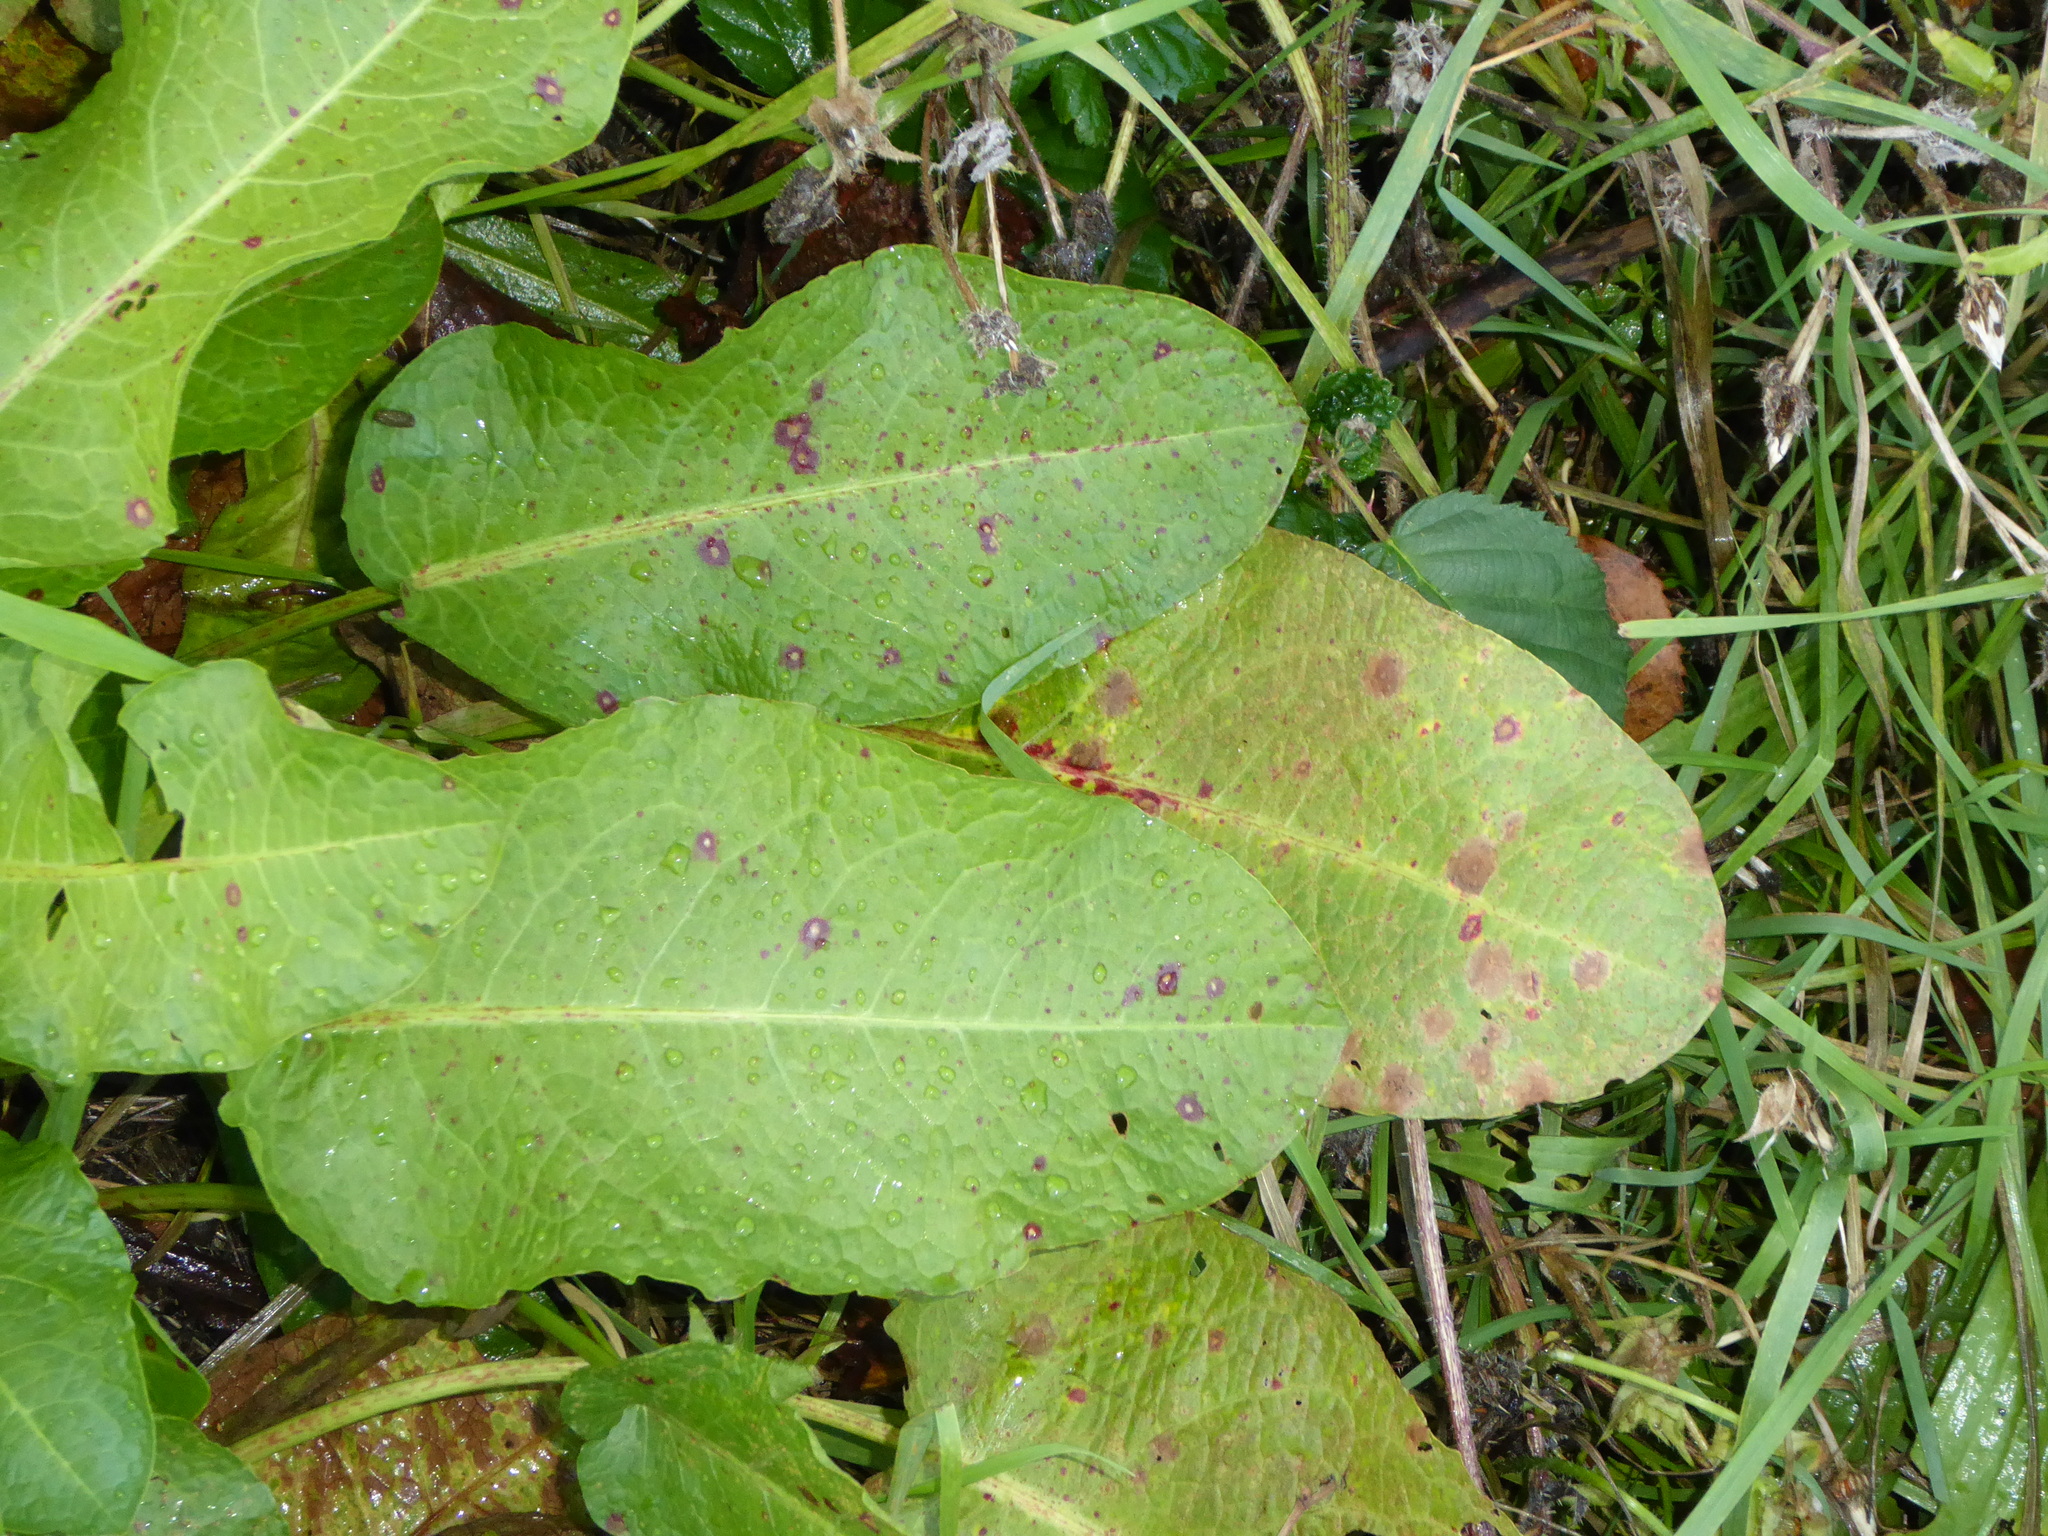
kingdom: Fungi
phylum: Ascomycota
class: Dothideomycetes
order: Mycosphaerellales
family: Mycosphaerellaceae
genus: Ramularia
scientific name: Ramularia rubella
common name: Red dock spot
